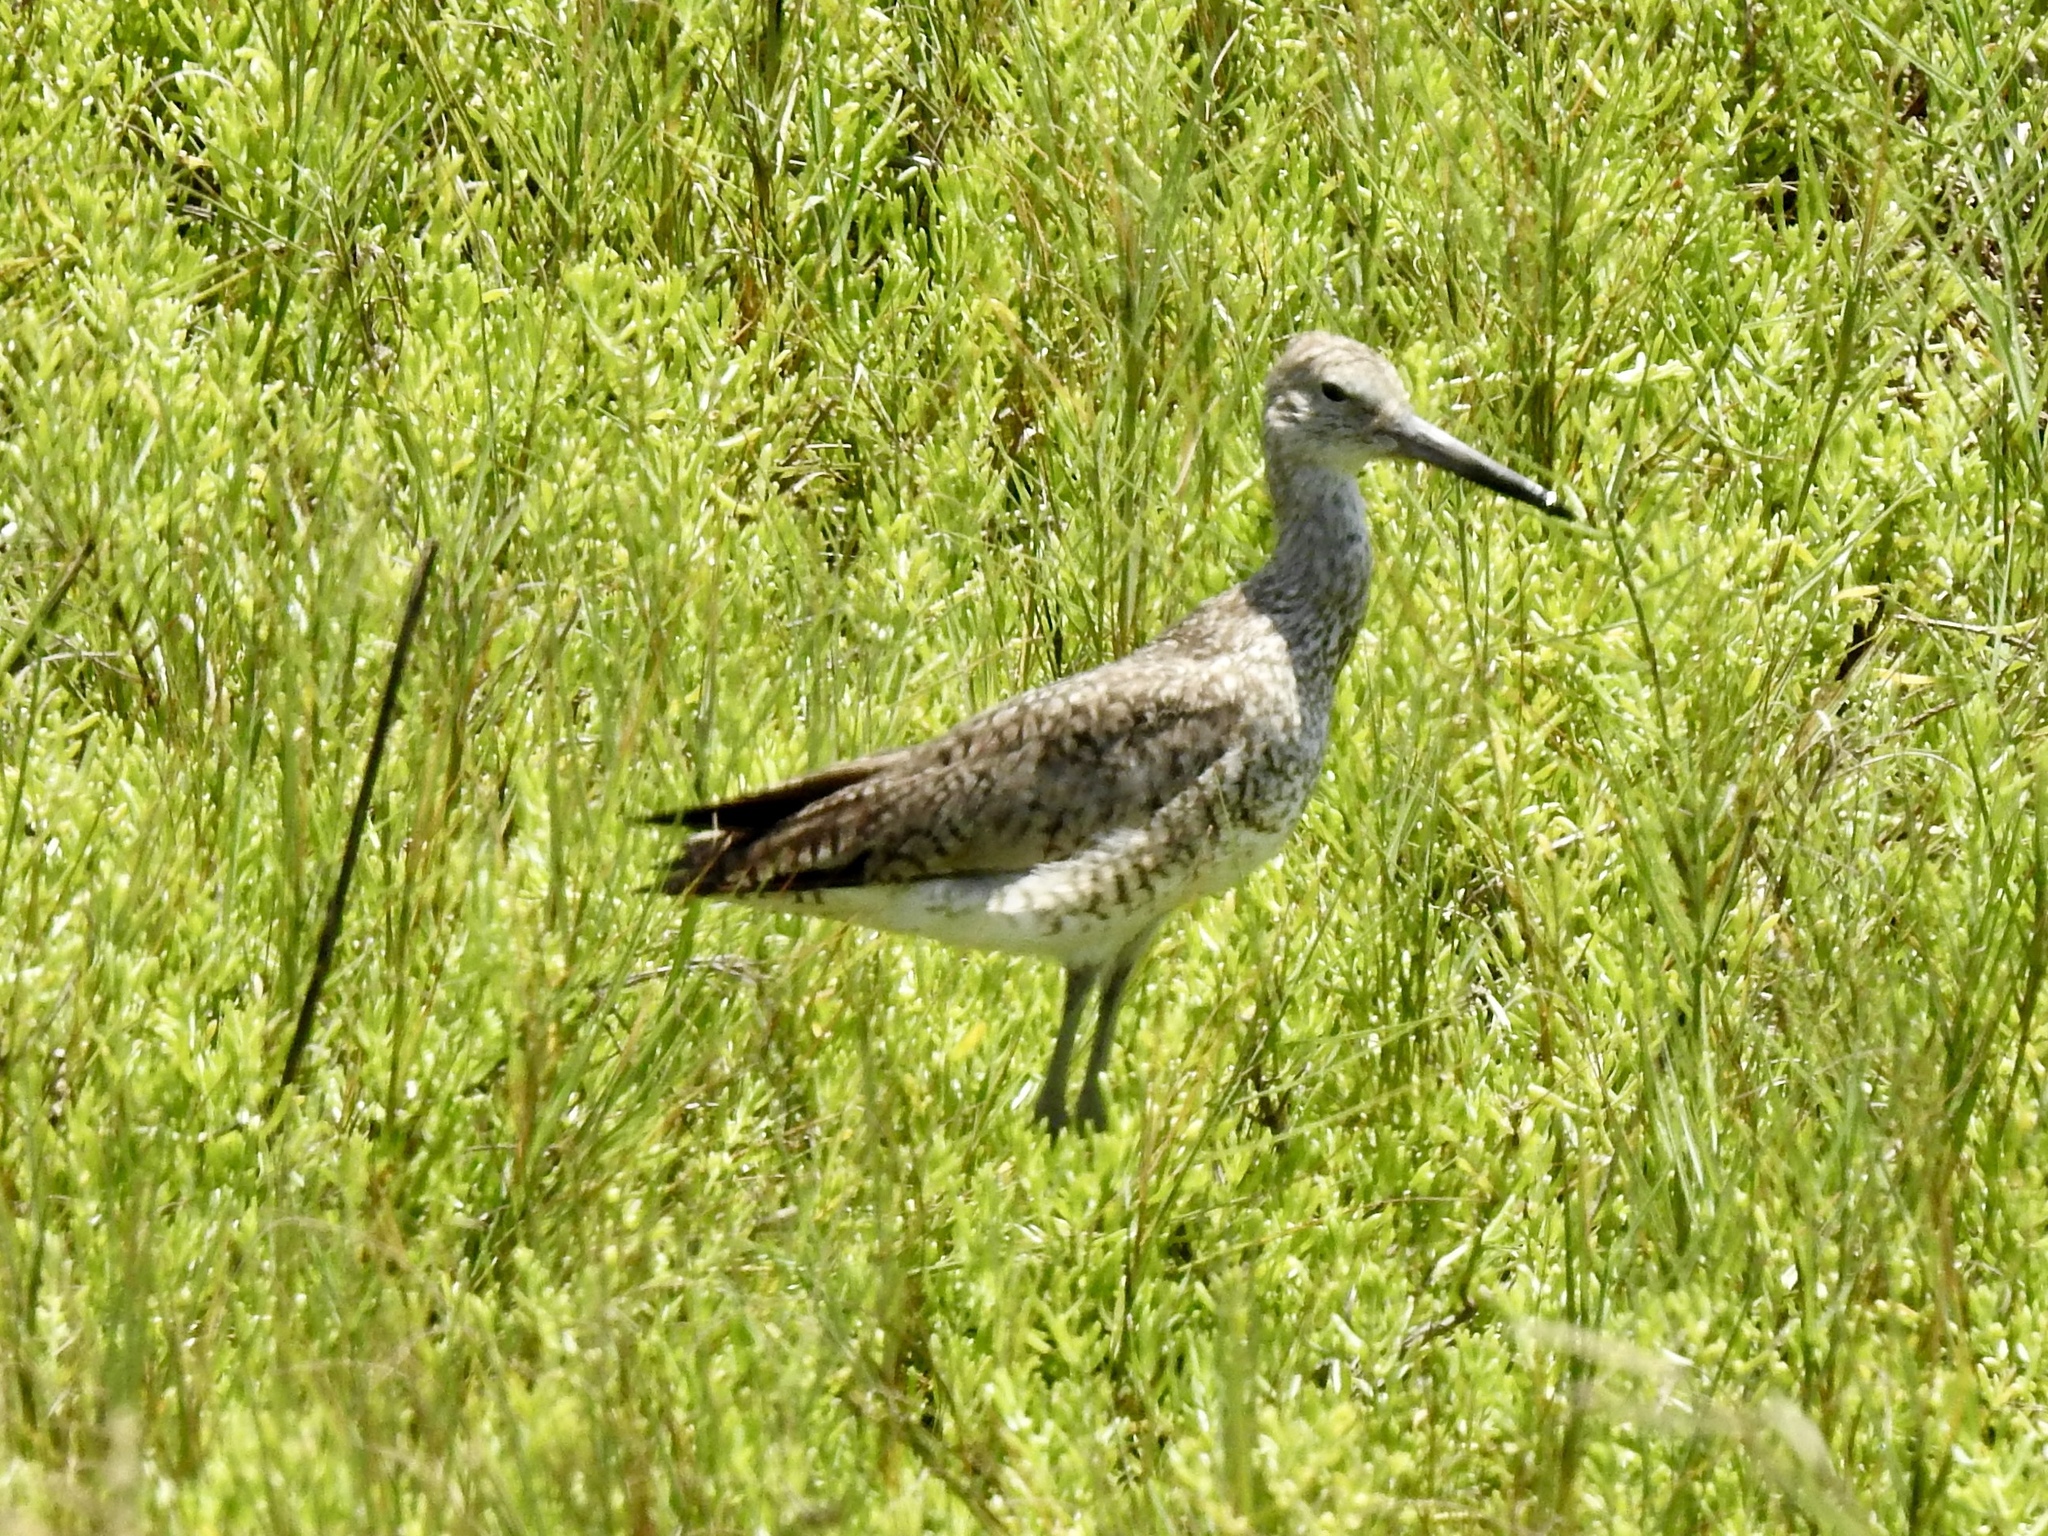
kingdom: Animalia
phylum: Chordata
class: Aves
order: Charadriiformes
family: Scolopacidae
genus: Tringa
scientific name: Tringa semipalmata
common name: Willet
